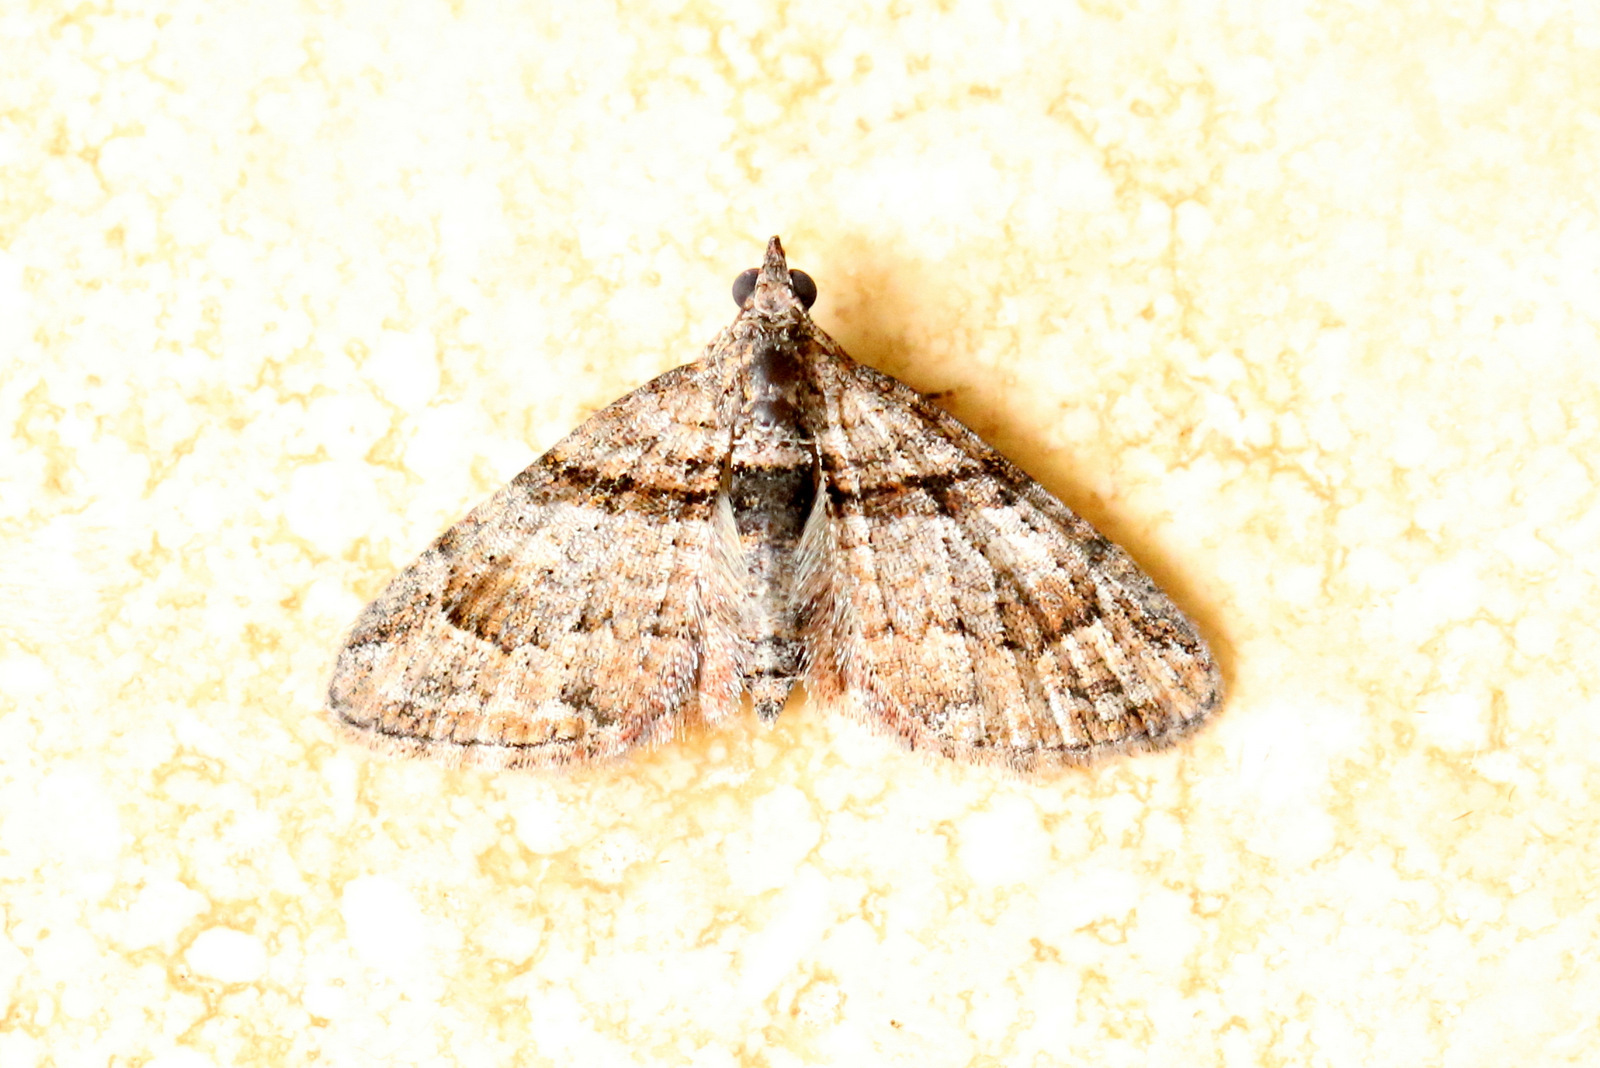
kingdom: Animalia
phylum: Arthropoda
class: Insecta
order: Lepidoptera
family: Geometridae
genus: Phrissogonus
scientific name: Phrissogonus laticostata
